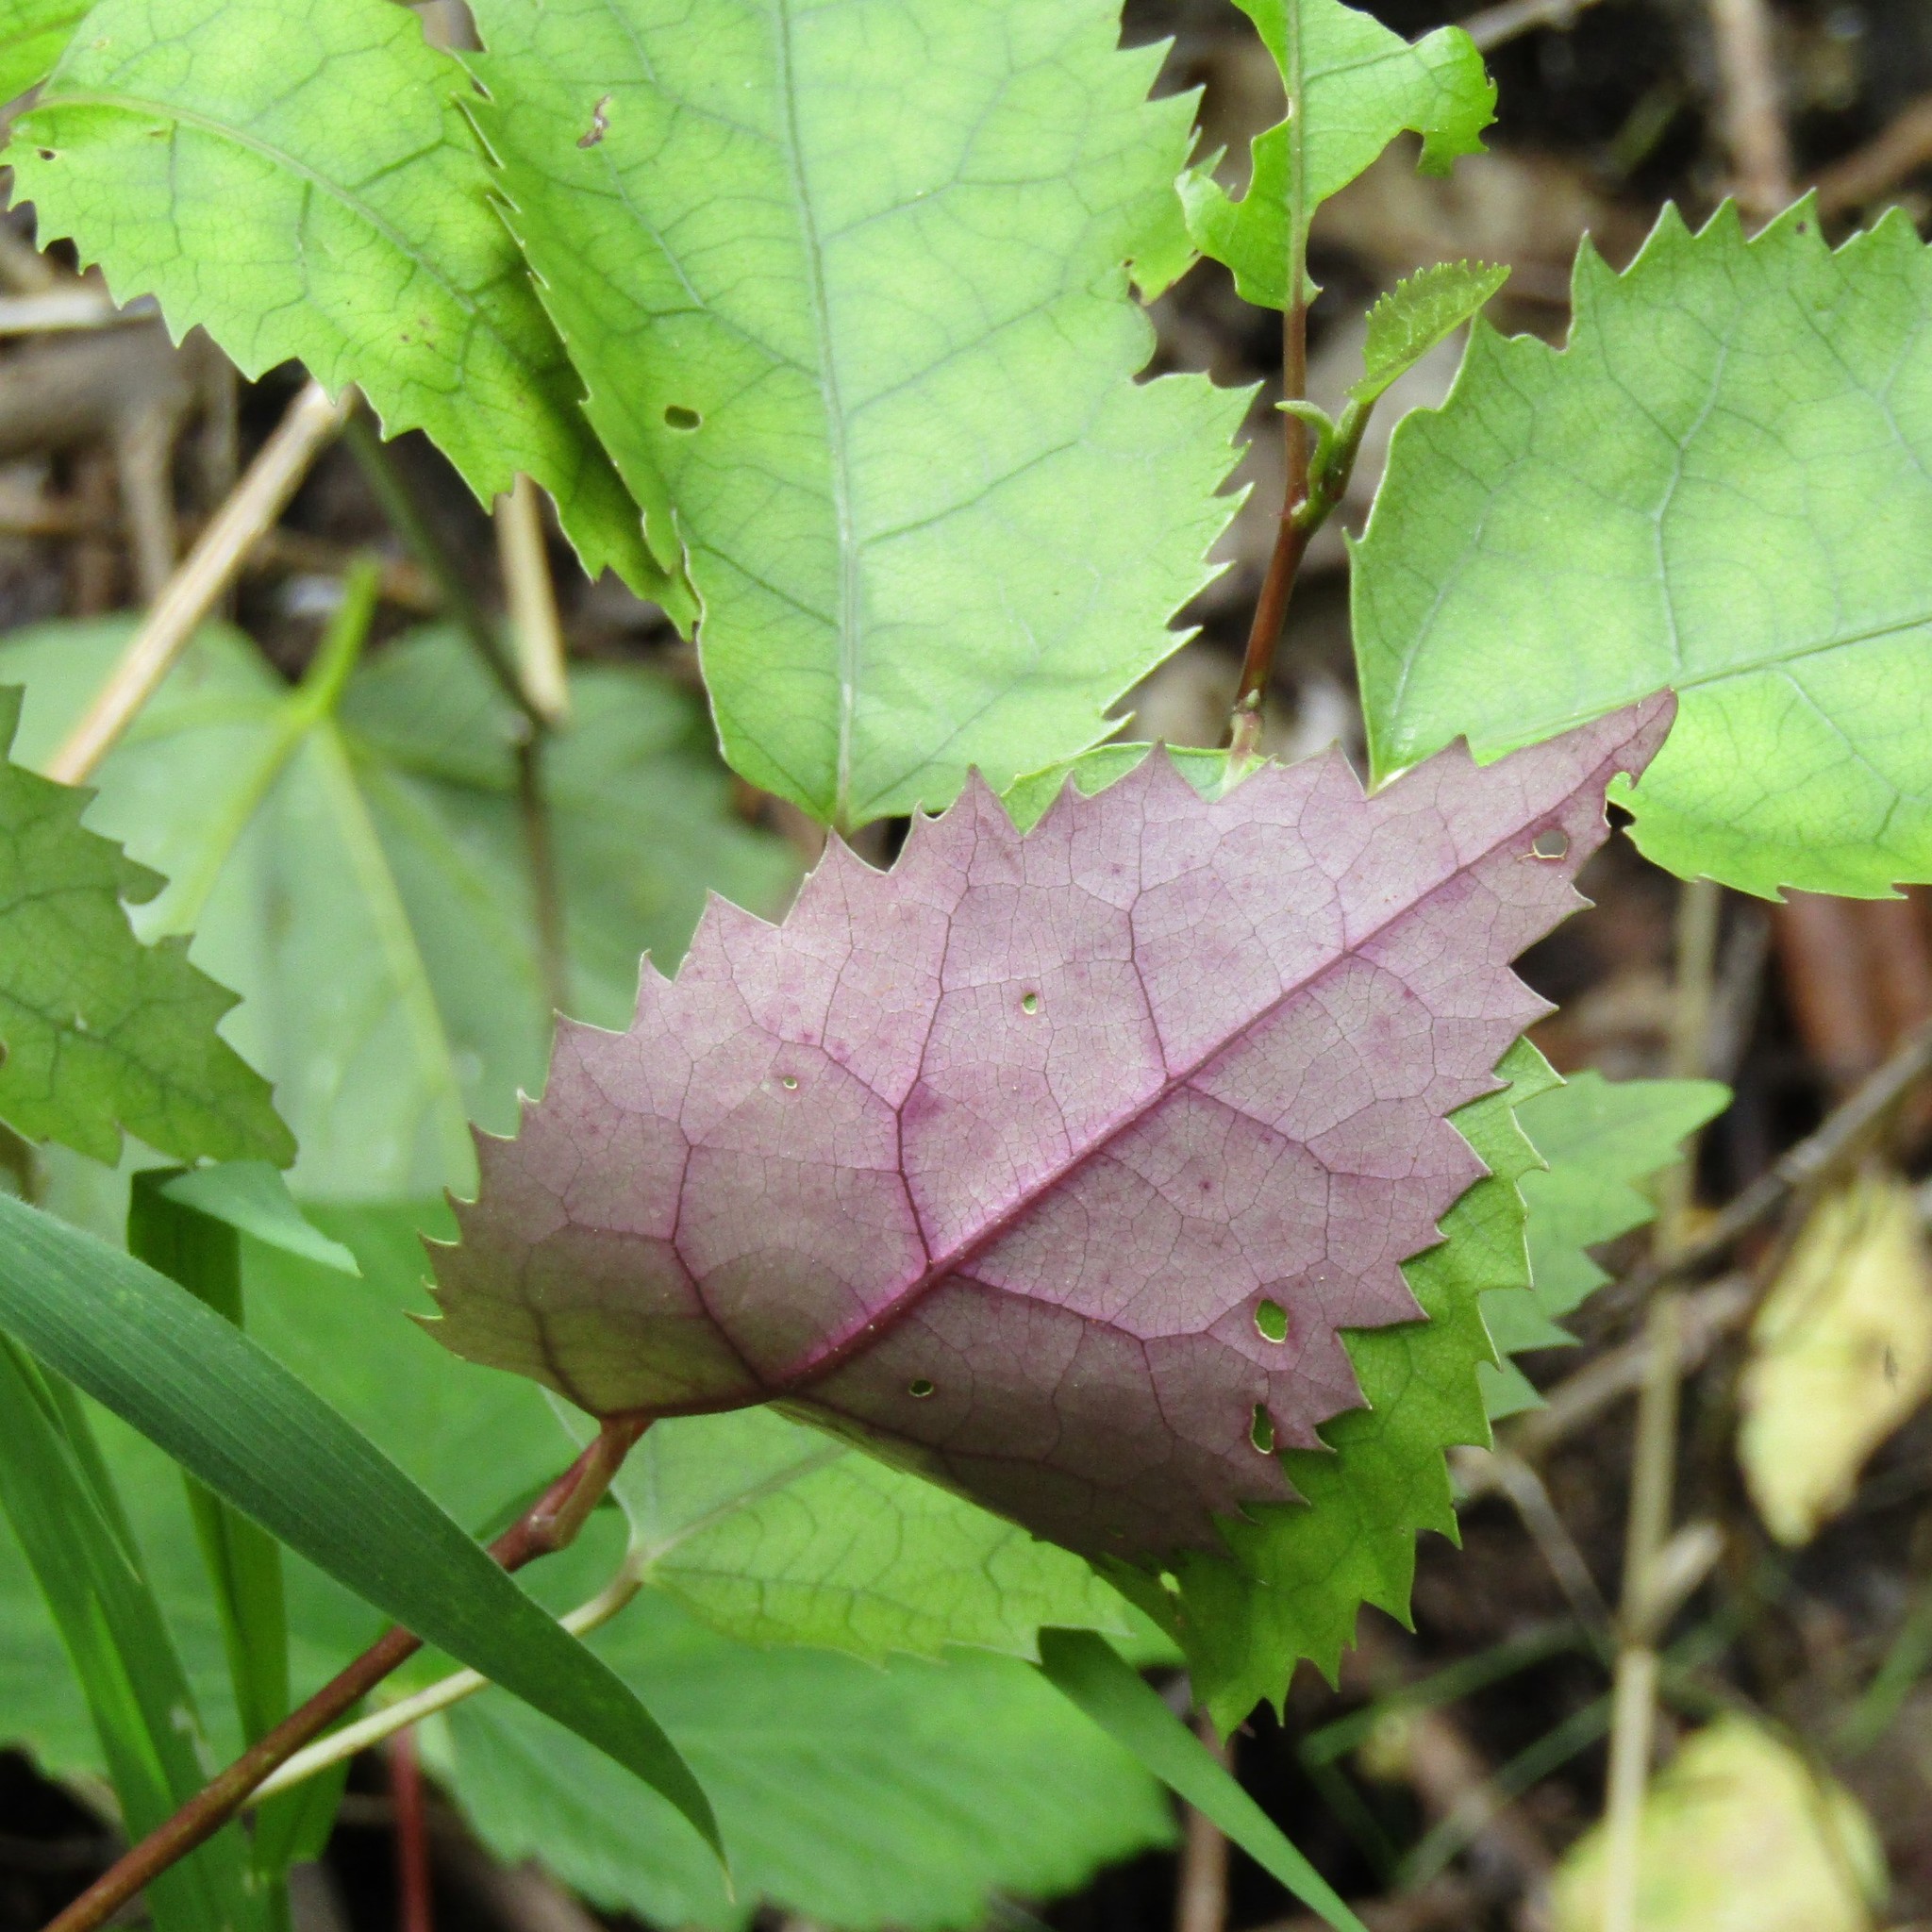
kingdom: Plantae
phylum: Tracheophyta
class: Magnoliopsida
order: Malvales
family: Malvaceae
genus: Hoheria
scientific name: Hoheria populnea
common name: Lacebark
